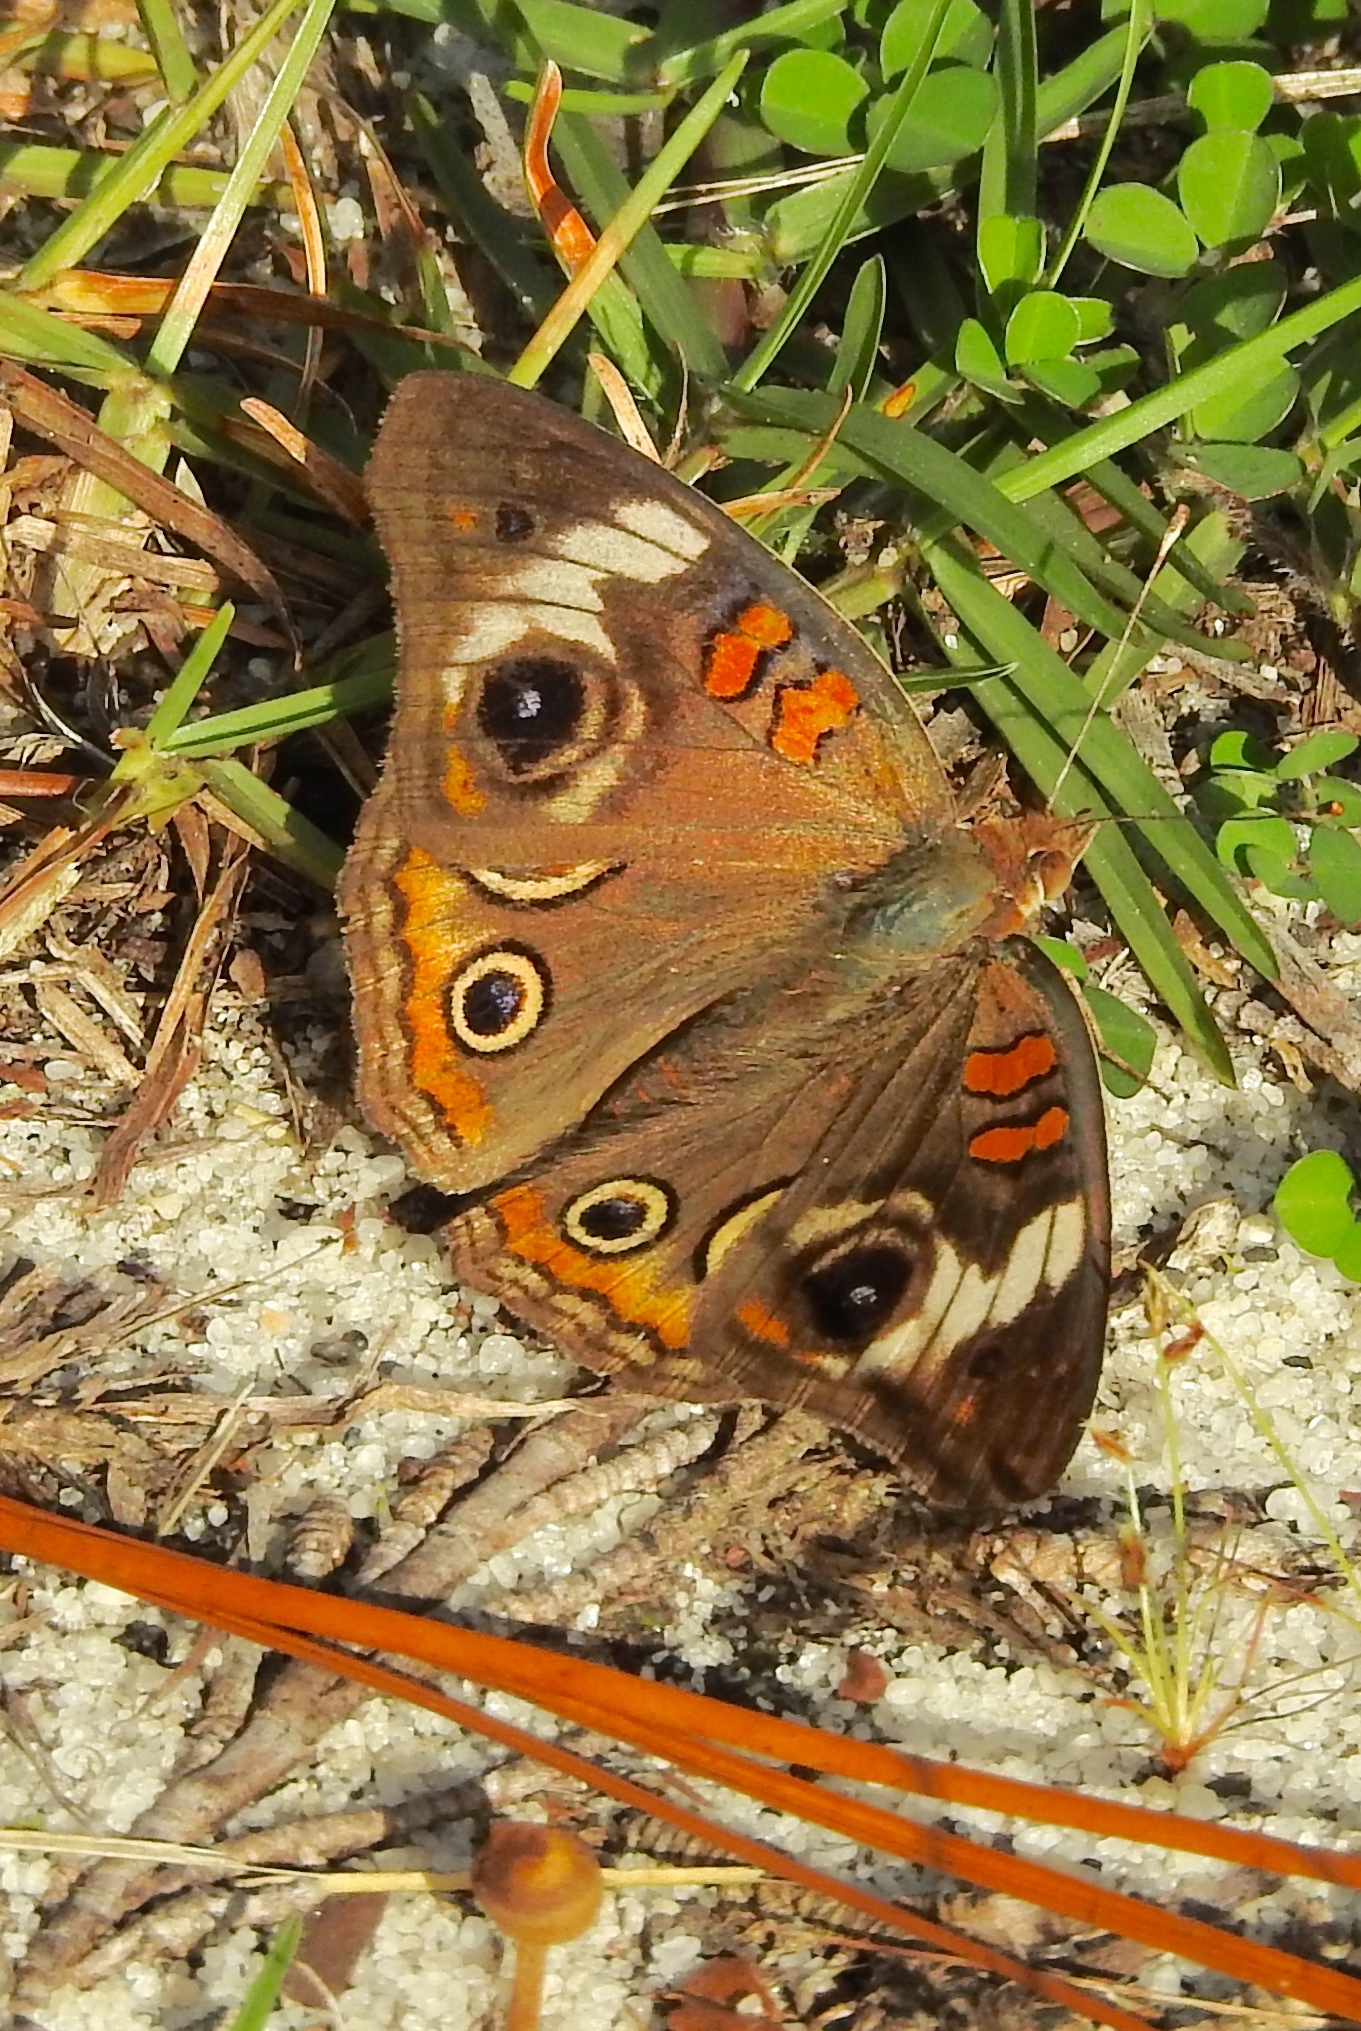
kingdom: Animalia
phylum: Arthropoda
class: Insecta
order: Lepidoptera
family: Nymphalidae
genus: Junonia
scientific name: Junonia coenia
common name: Common buckeye
